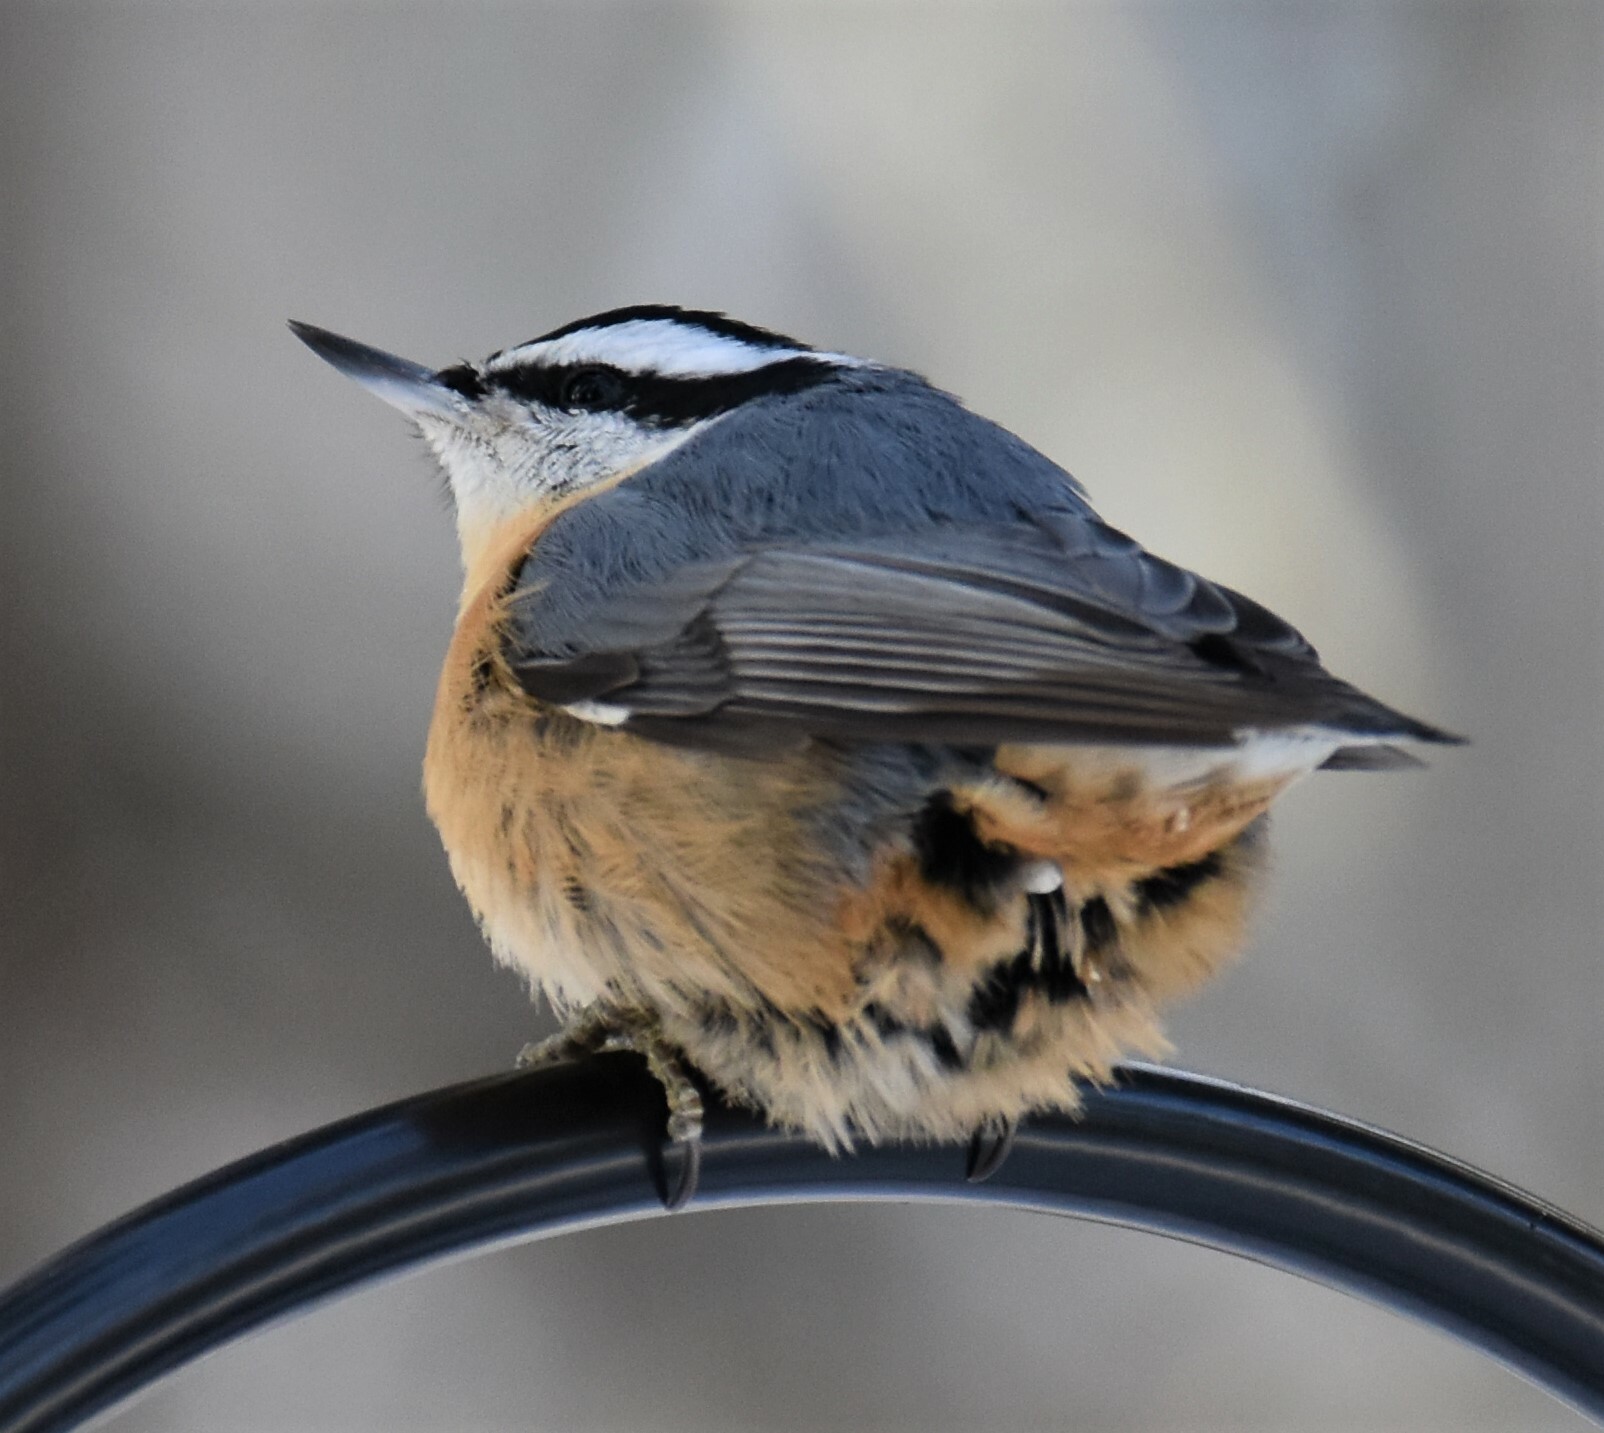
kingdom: Animalia
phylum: Chordata
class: Aves
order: Passeriformes
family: Sittidae
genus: Sitta
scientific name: Sitta canadensis
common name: Red-breasted nuthatch
